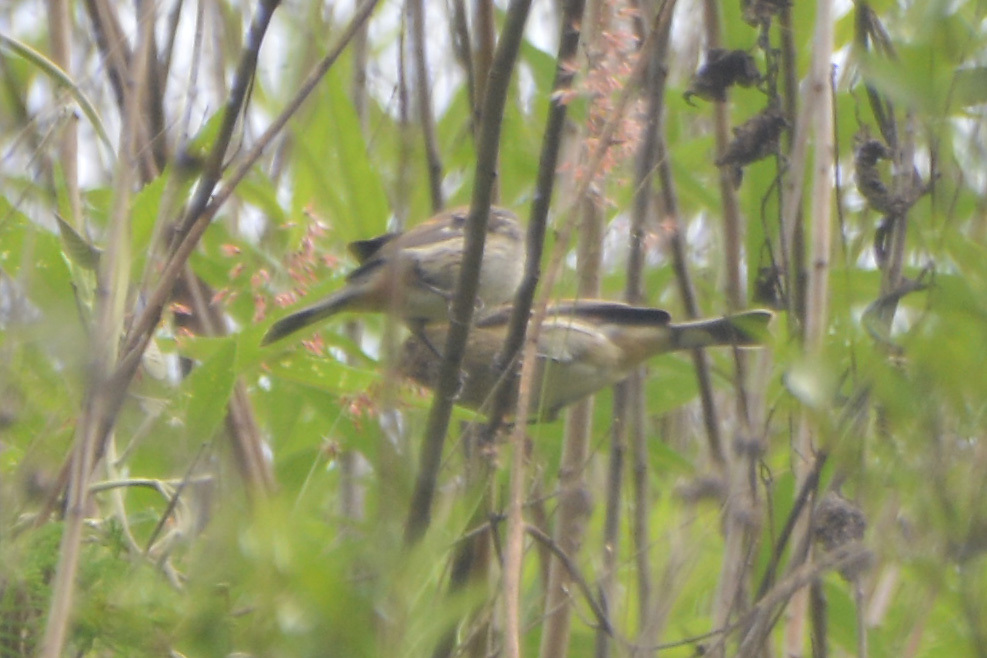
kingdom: Animalia
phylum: Chordata
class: Aves
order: Passeriformes
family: Thraupidae
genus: Catamenia
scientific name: Catamenia analis
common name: Band-tailed seedeater
